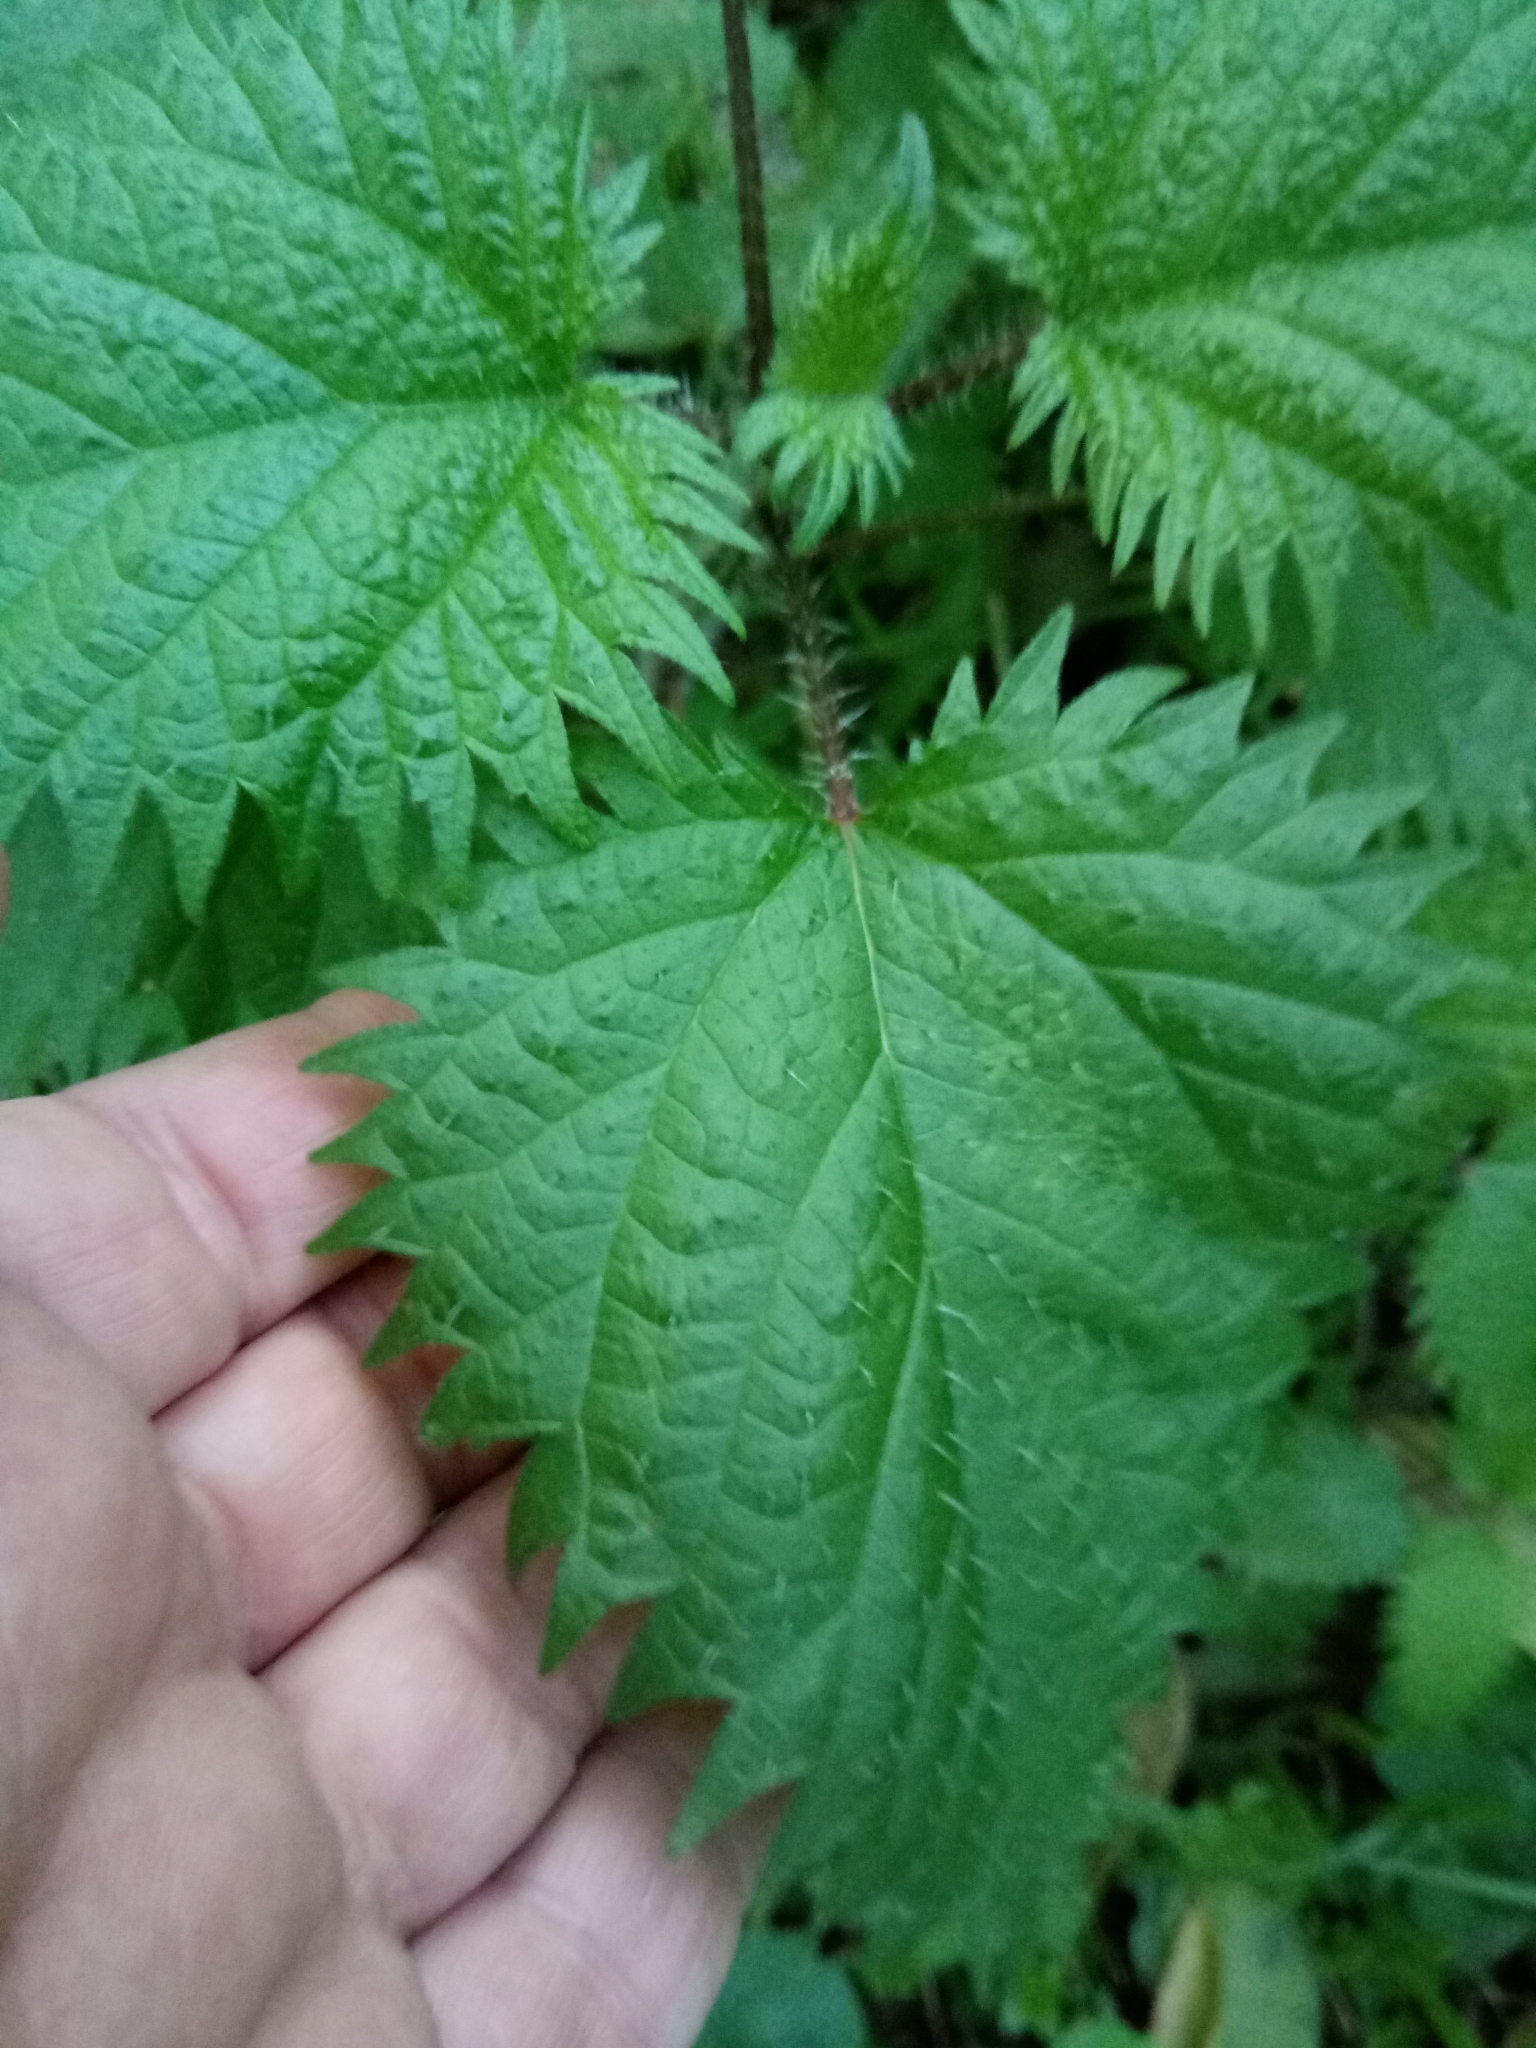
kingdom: Plantae
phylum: Tracheophyta
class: Magnoliopsida
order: Rosales
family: Urticaceae
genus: Urtica
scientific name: Urtica pilulifera
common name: Roman nettle
